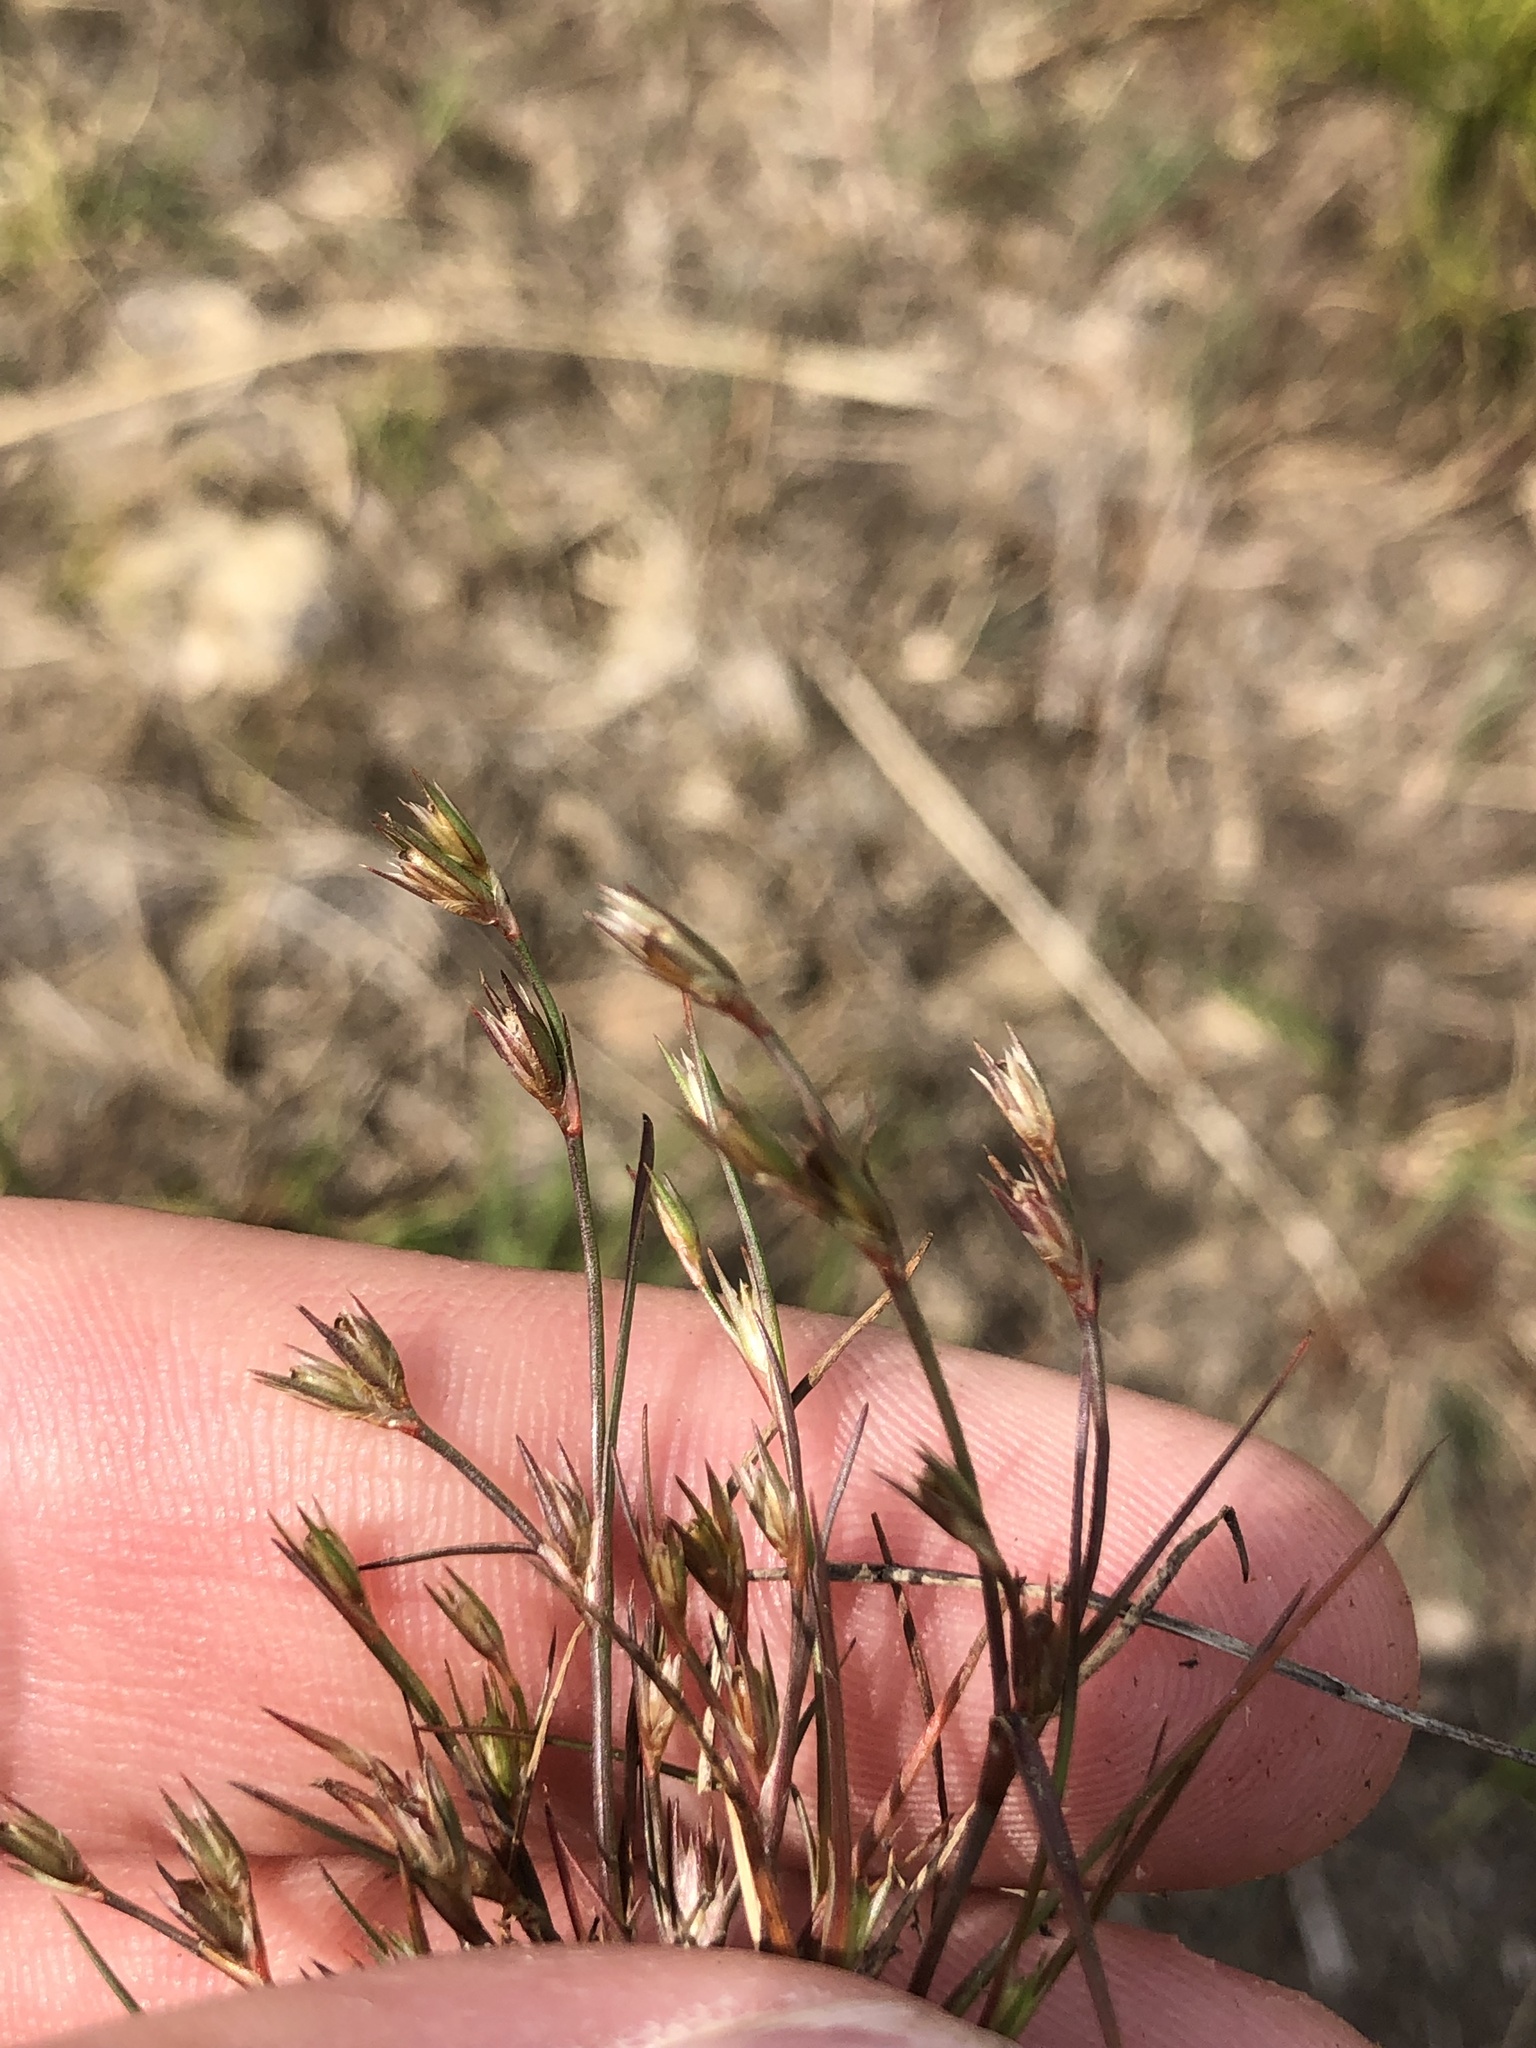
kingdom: Plantae
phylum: Tracheophyta
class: Liliopsida
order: Poales
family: Juncaceae
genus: Juncus
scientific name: Juncus bufonius
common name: Toad rush
